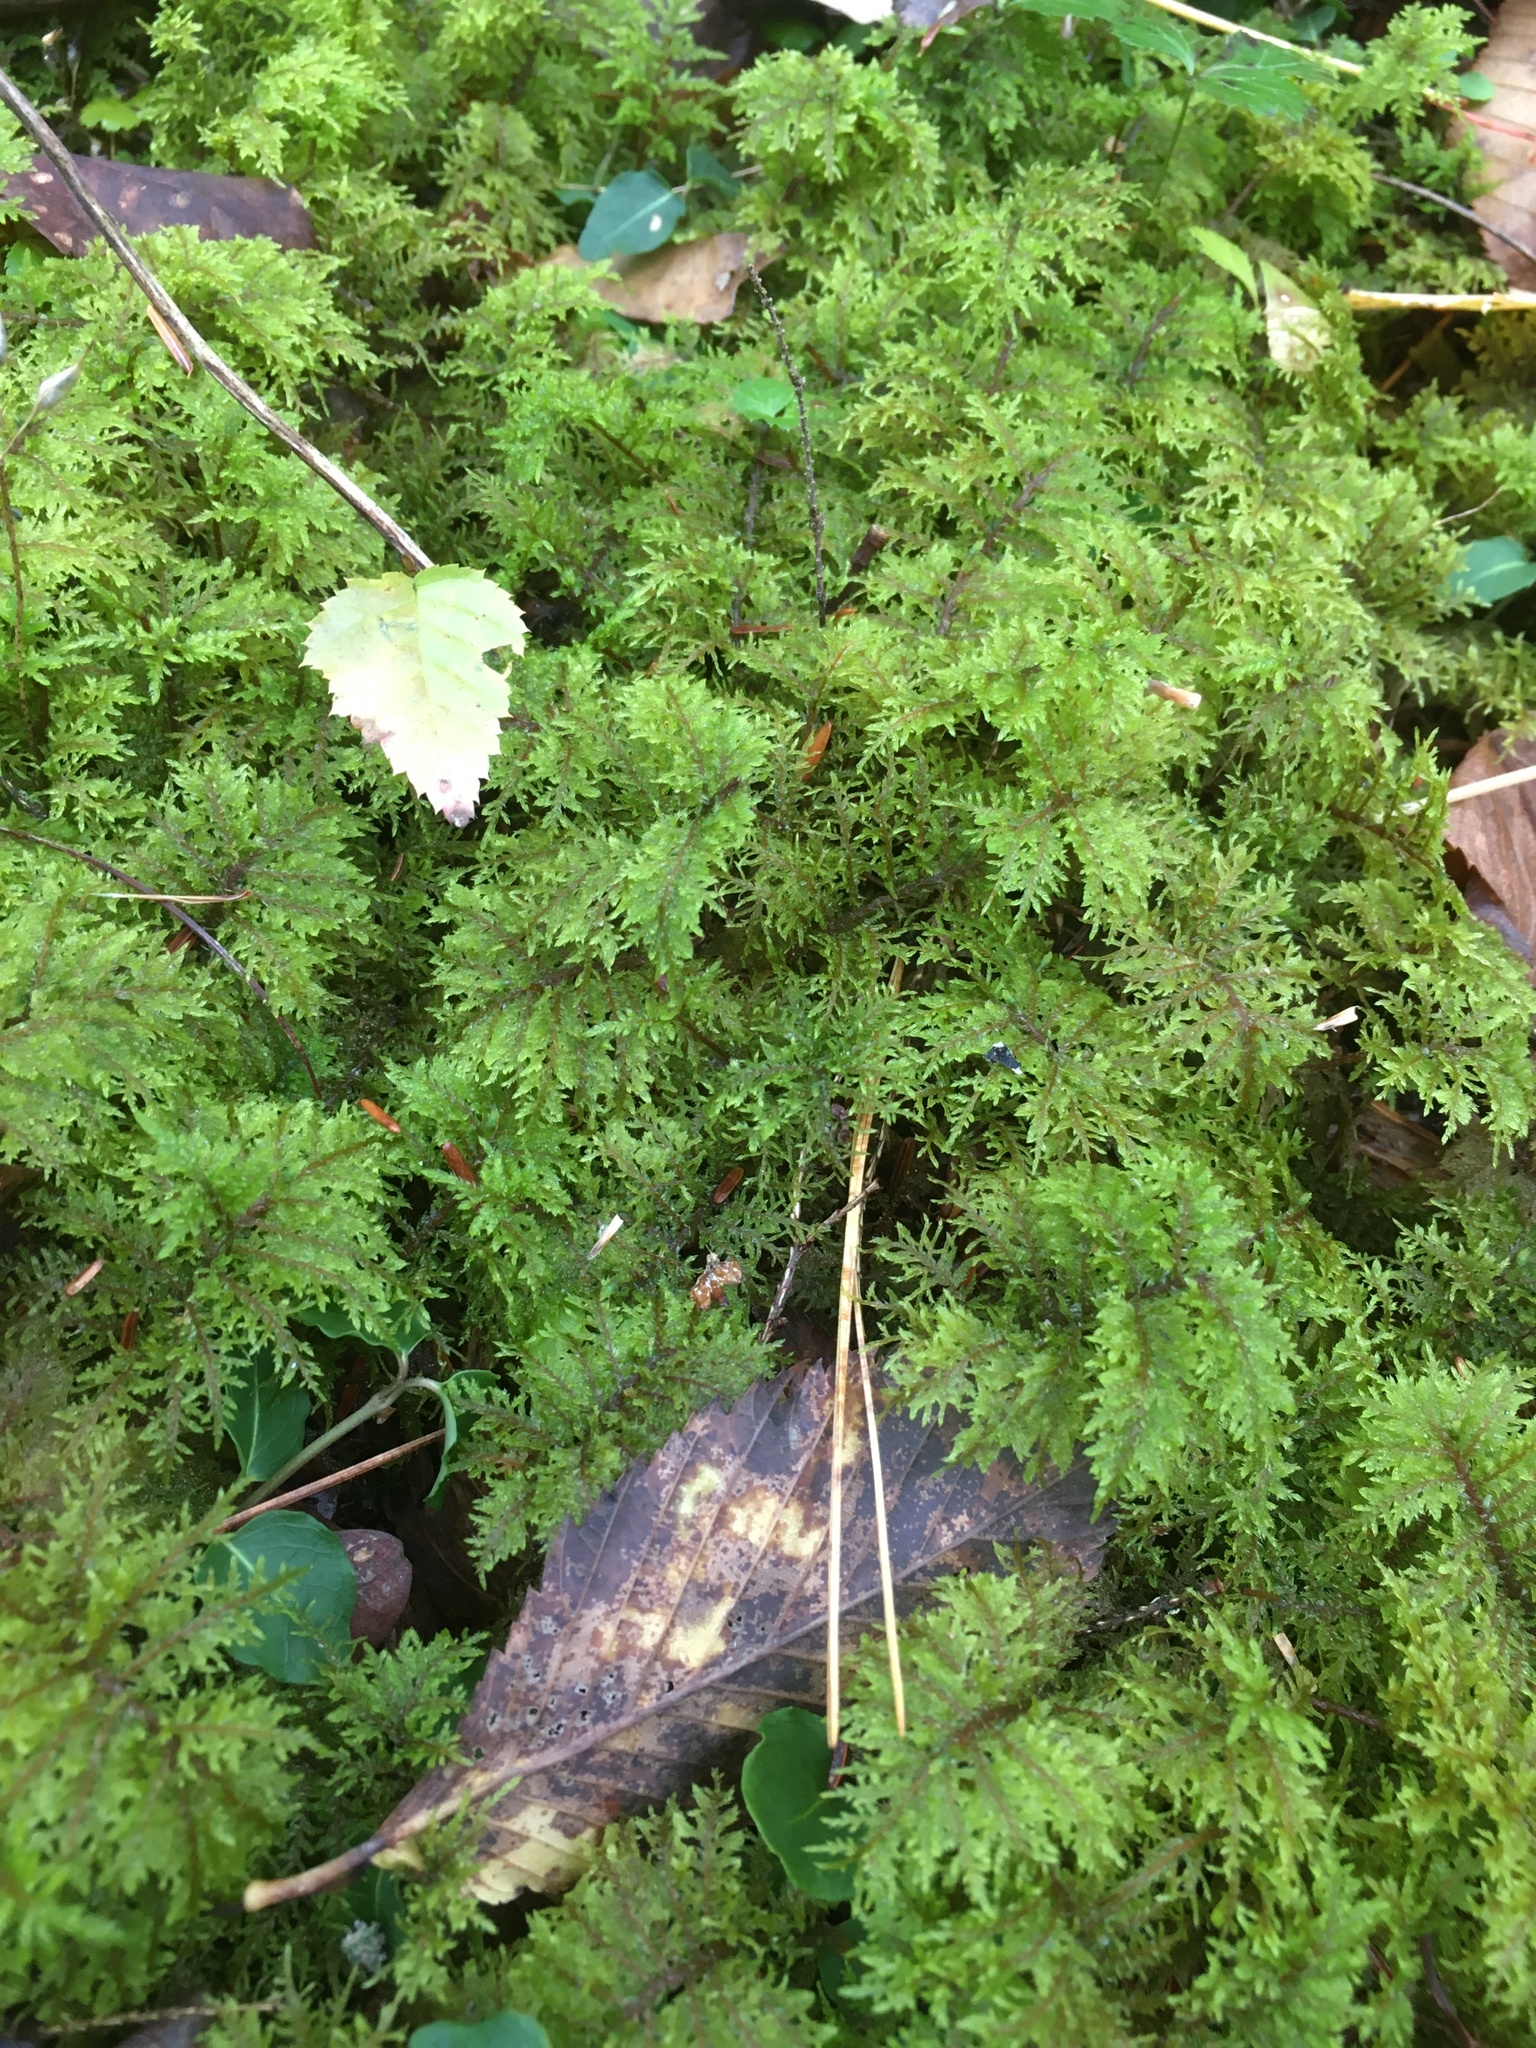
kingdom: Plantae
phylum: Bryophyta
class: Bryopsida
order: Hypnales
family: Hylocomiaceae
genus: Hylocomium
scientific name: Hylocomium splendens
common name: Stairstep moss
